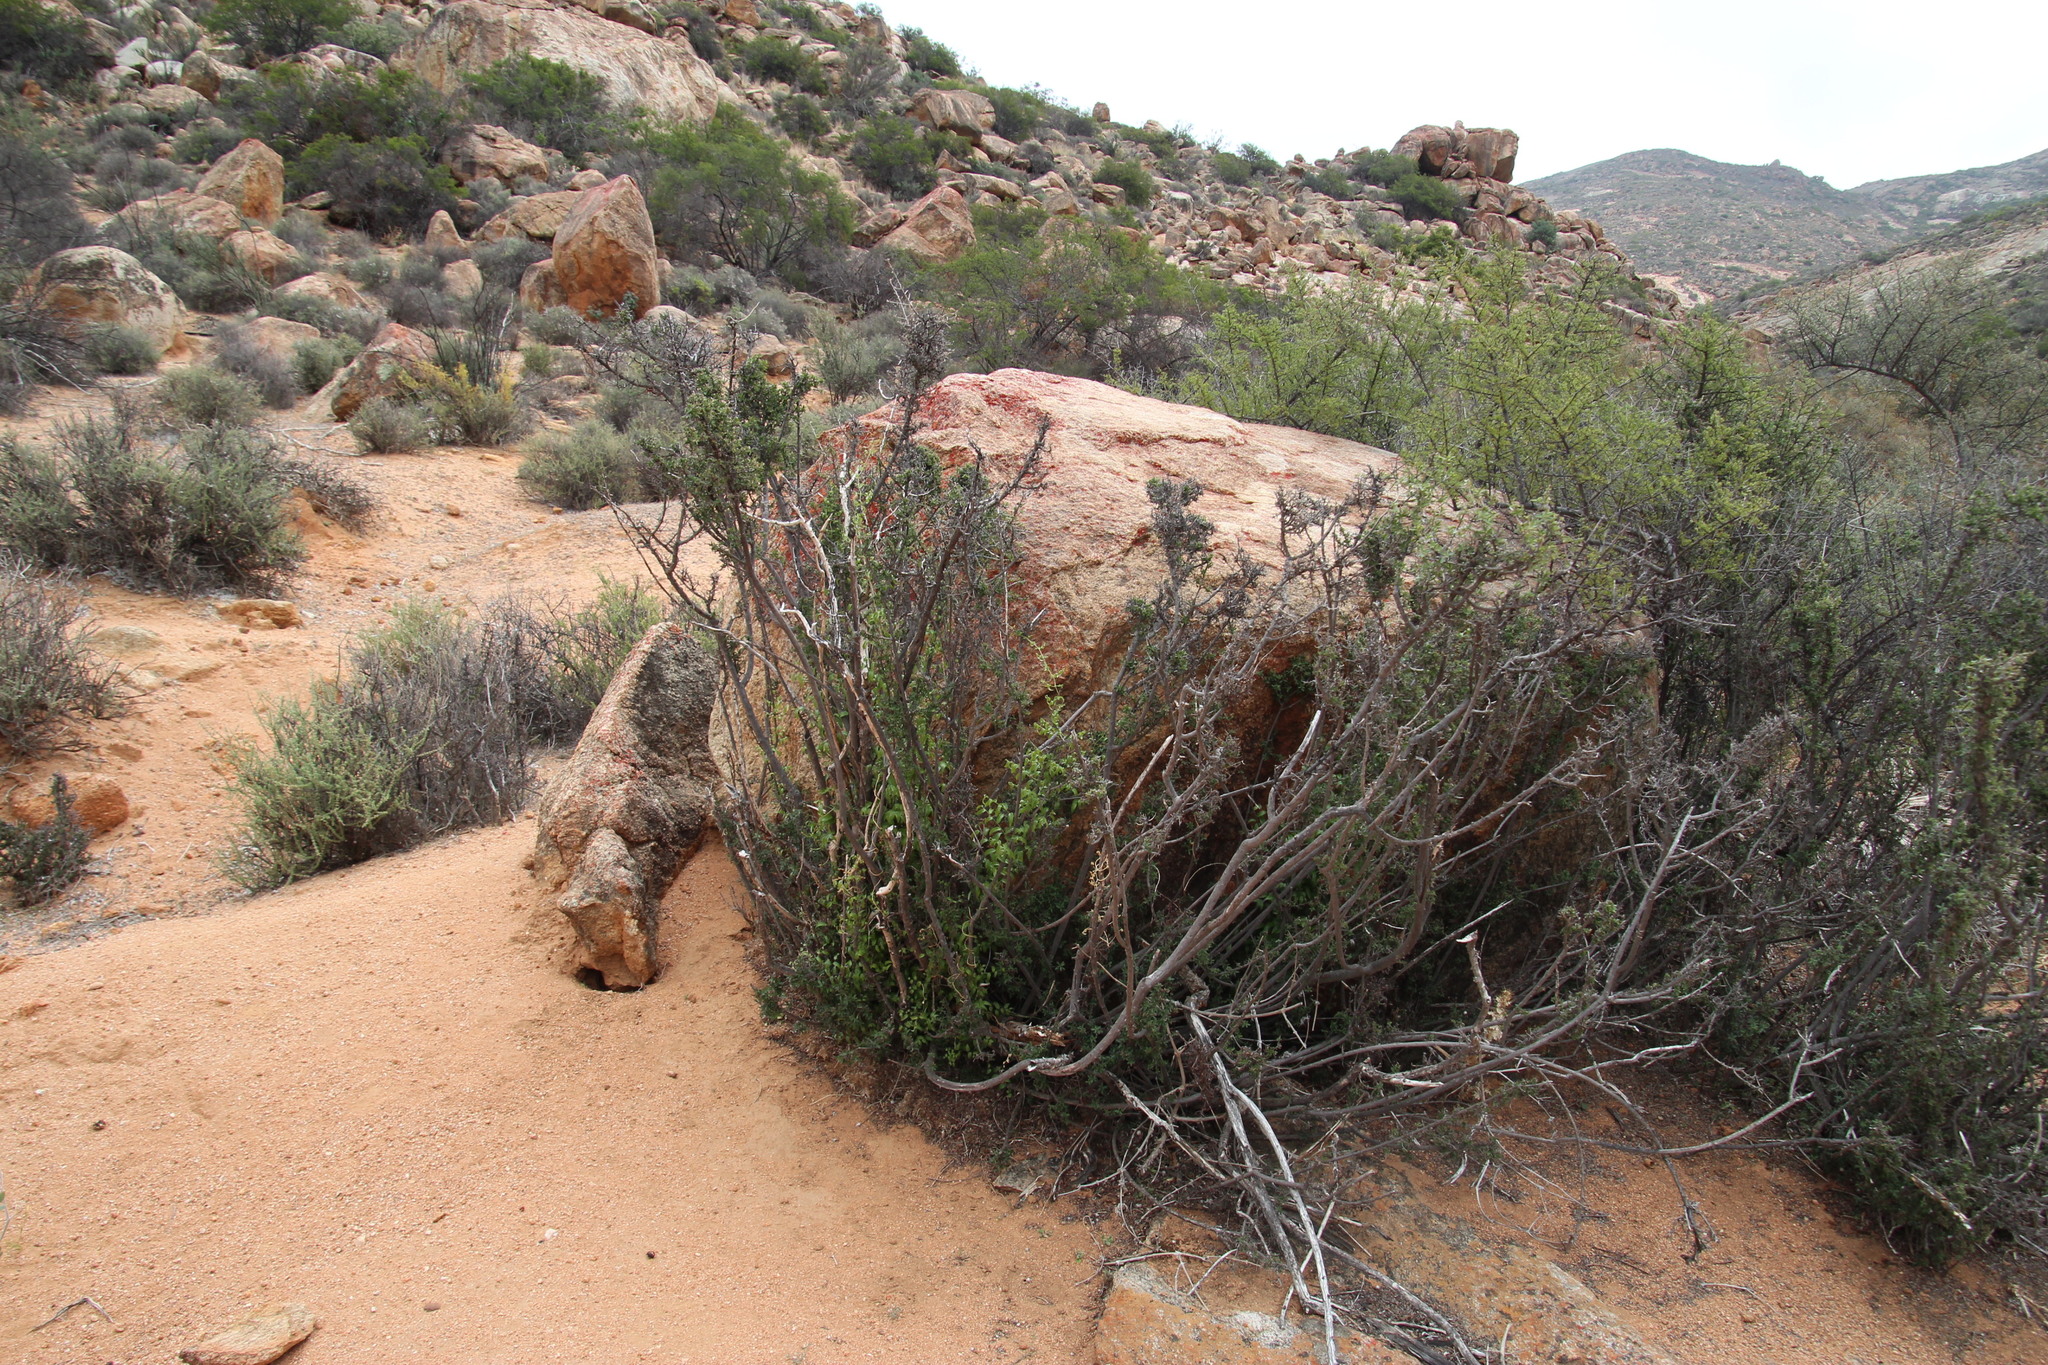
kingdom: Plantae
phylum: Tracheophyta
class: Liliopsida
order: Asparagales
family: Asparagaceae
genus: Asparagus
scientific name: Asparagus asparagoides
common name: African asparagus fern
